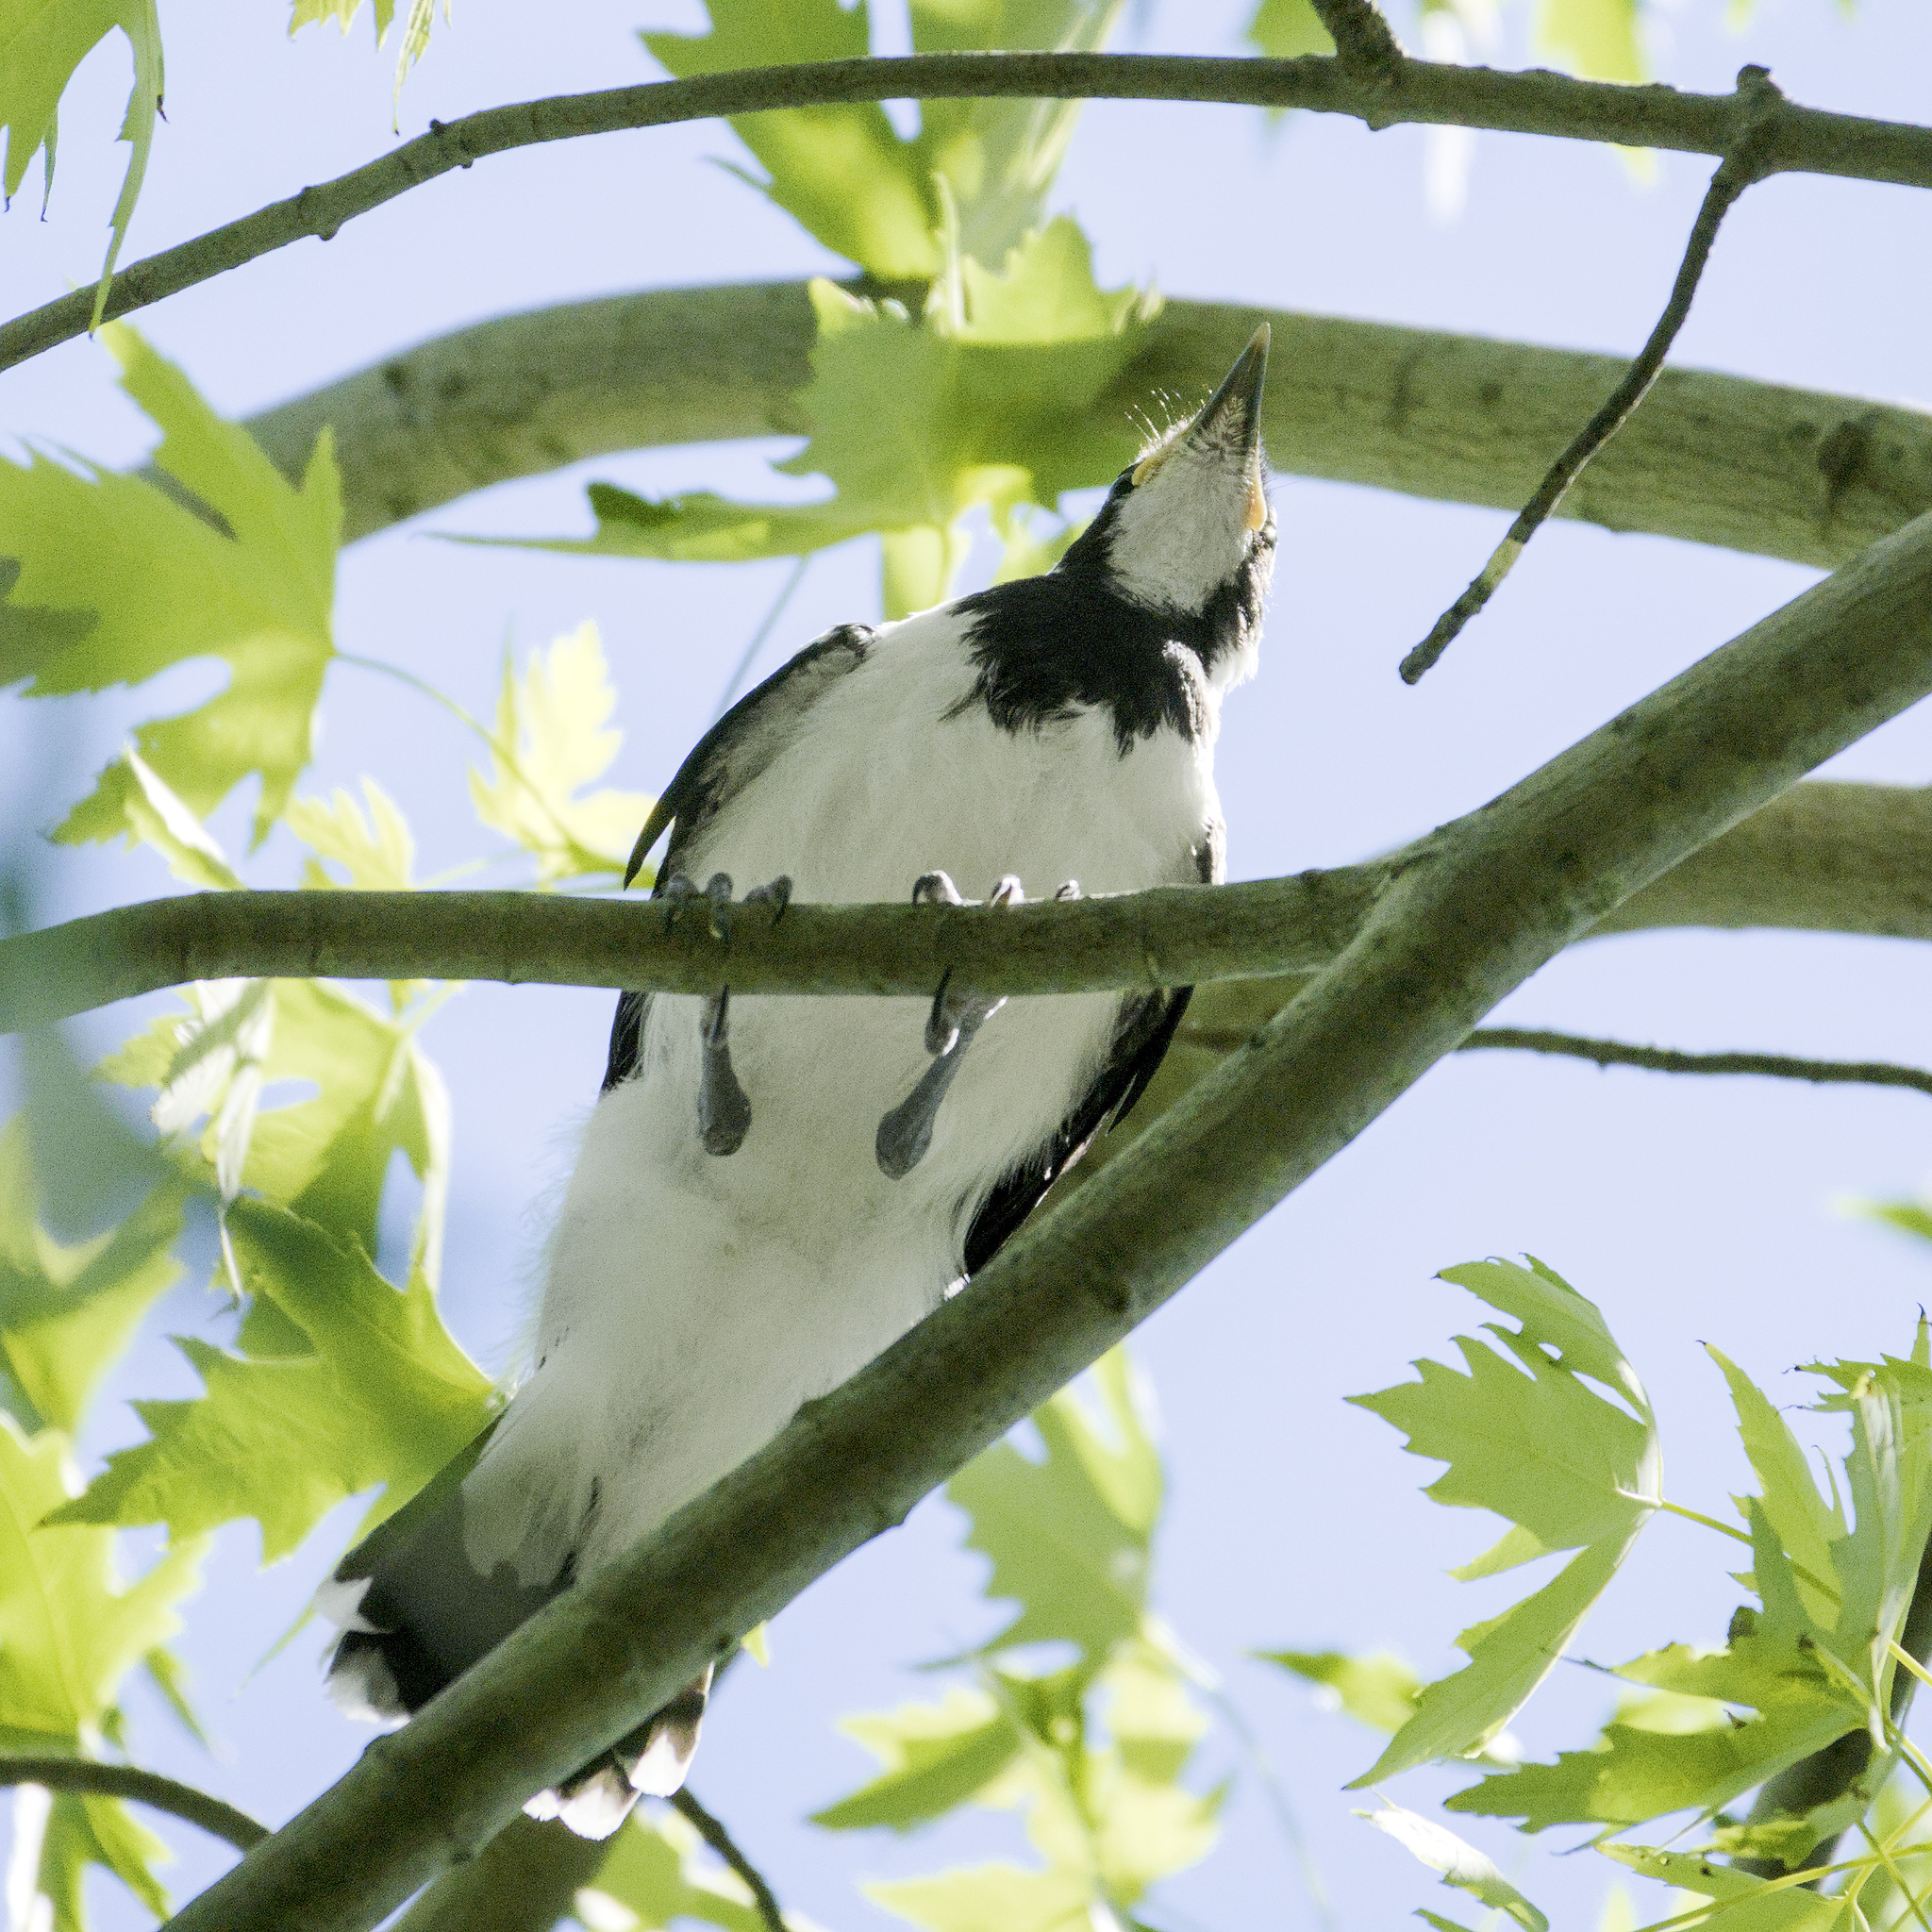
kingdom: Animalia
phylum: Chordata
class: Aves
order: Passeriformes
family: Monarchidae
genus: Grallina
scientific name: Grallina cyanoleuca
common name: Magpie-lark
